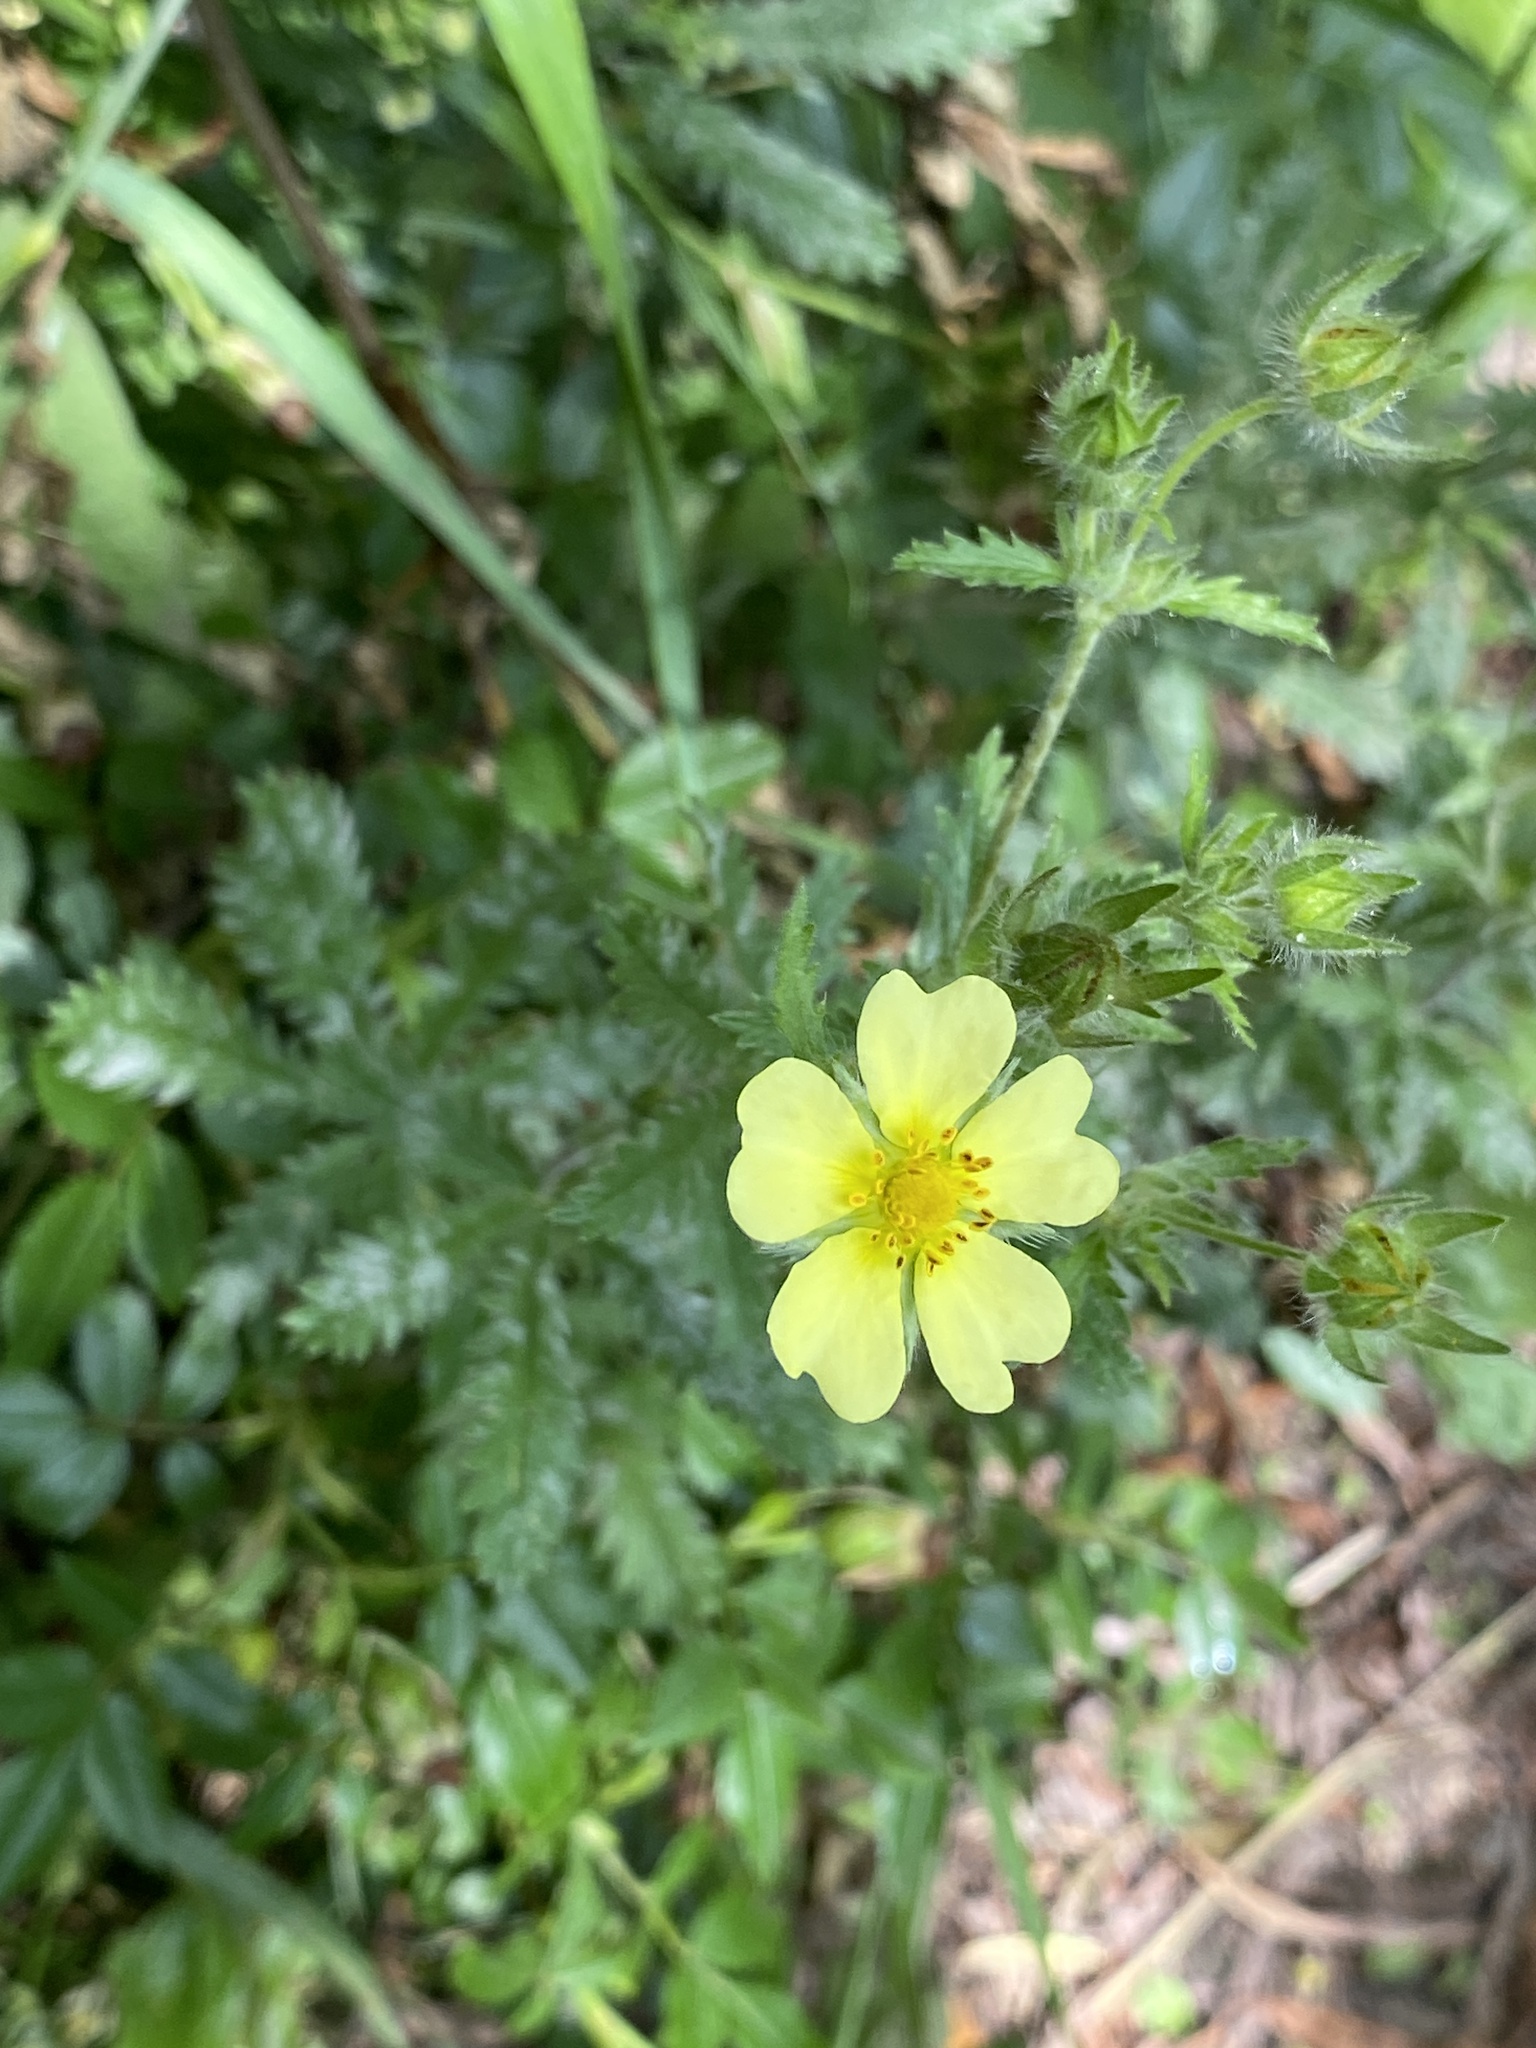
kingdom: Plantae
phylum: Tracheophyta
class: Magnoliopsida
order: Rosales
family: Rosaceae
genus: Potentilla
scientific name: Potentilla recta
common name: Sulphur cinquefoil
